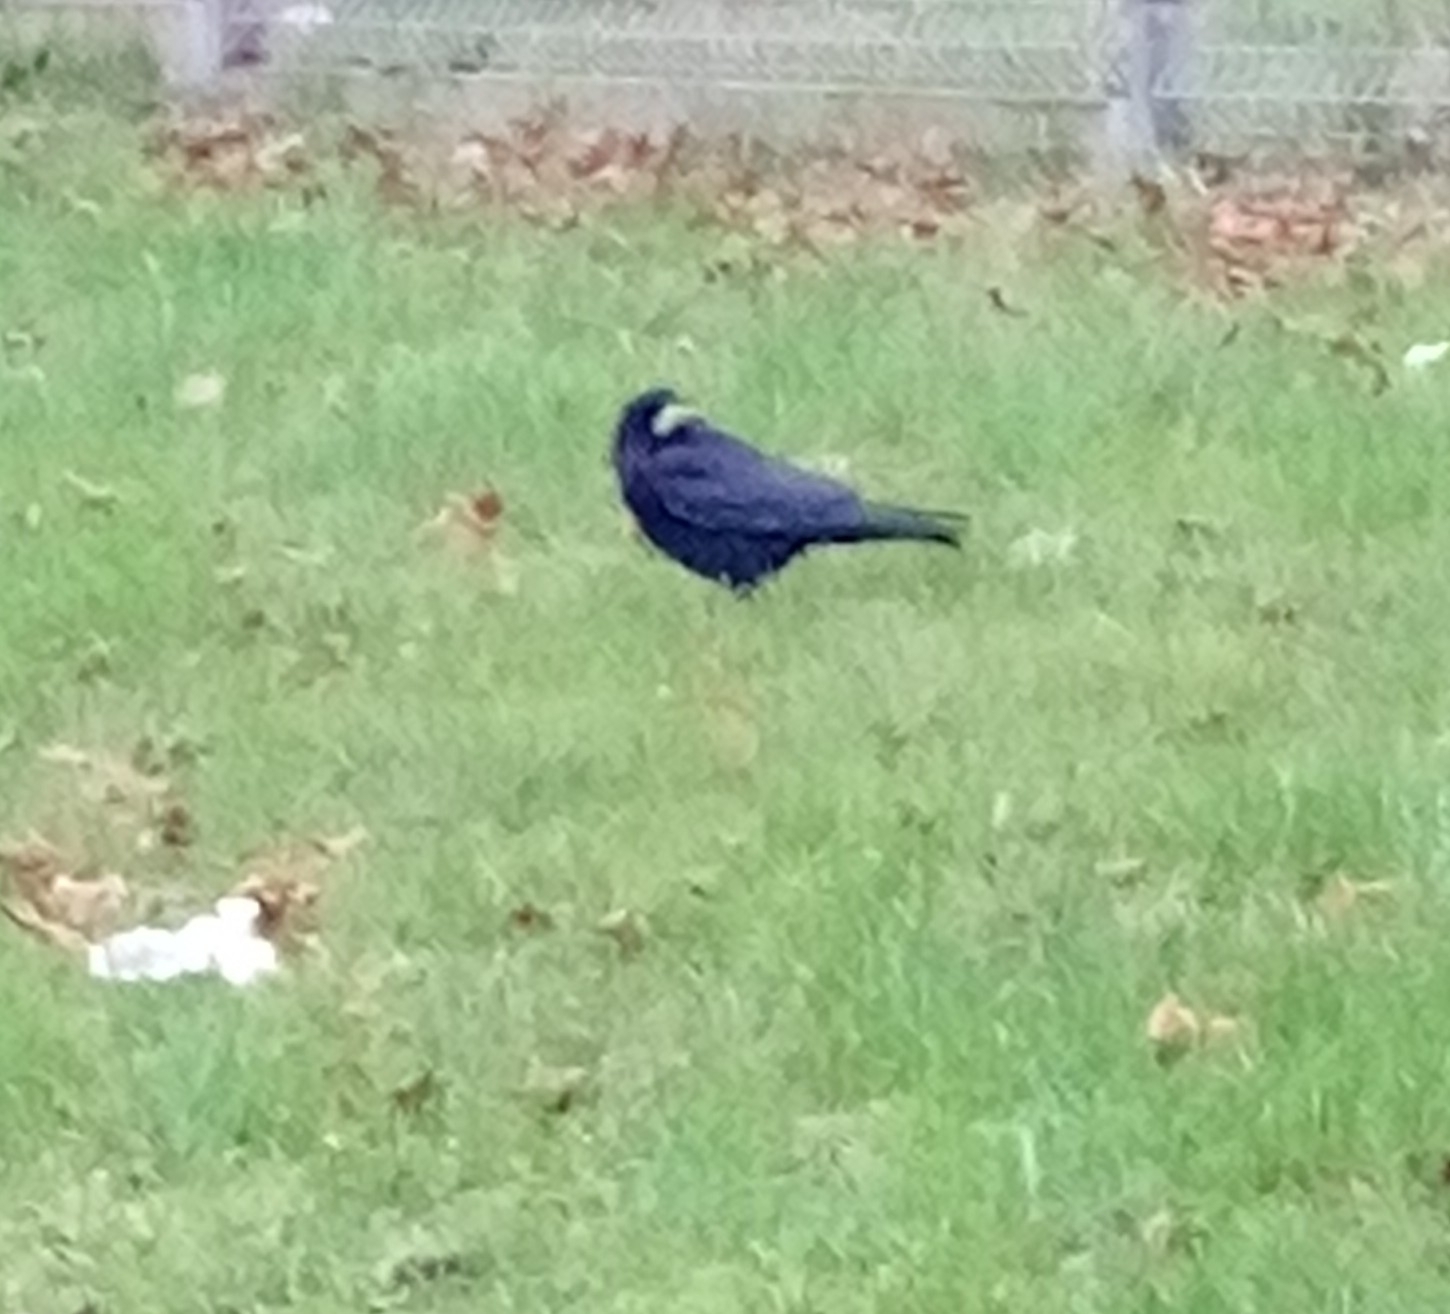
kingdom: Animalia
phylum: Chordata
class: Aves
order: Passeriformes
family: Corvidae
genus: Corvus
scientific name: Corvus frugilegus
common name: Rook
